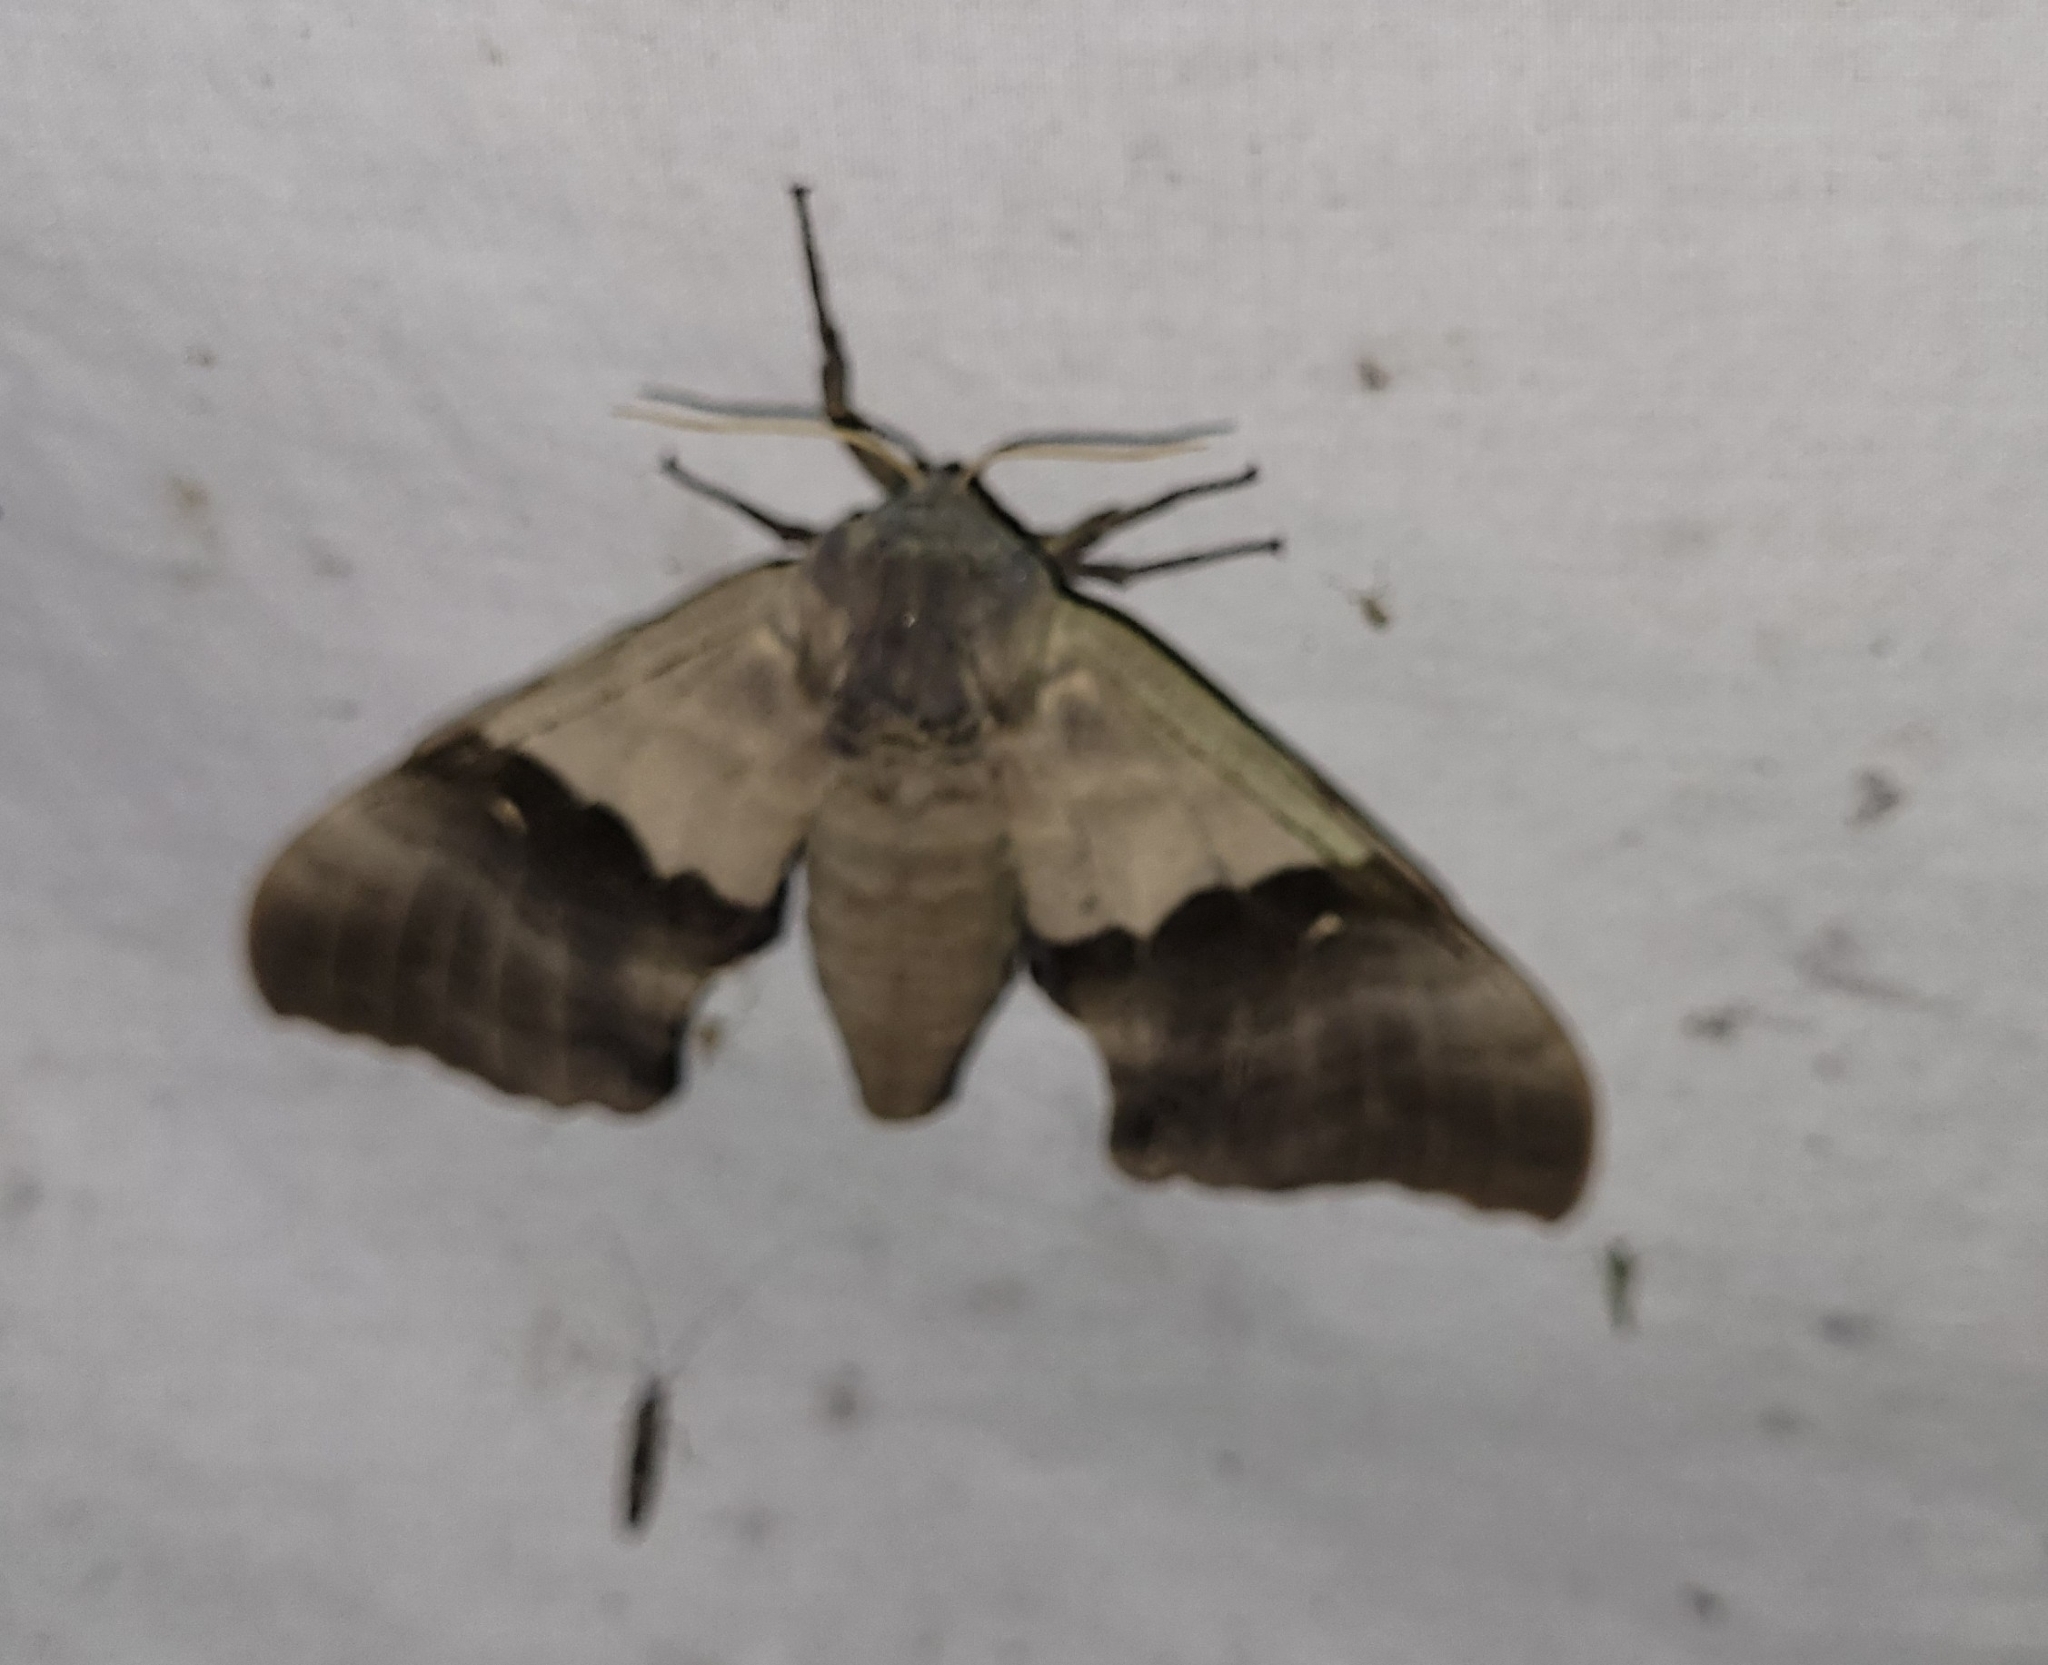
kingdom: Animalia
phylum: Arthropoda
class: Insecta
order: Lepidoptera
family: Sphingidae
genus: Pachysphinx
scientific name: Pachysphinx modesta
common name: Big poplar sphinx
